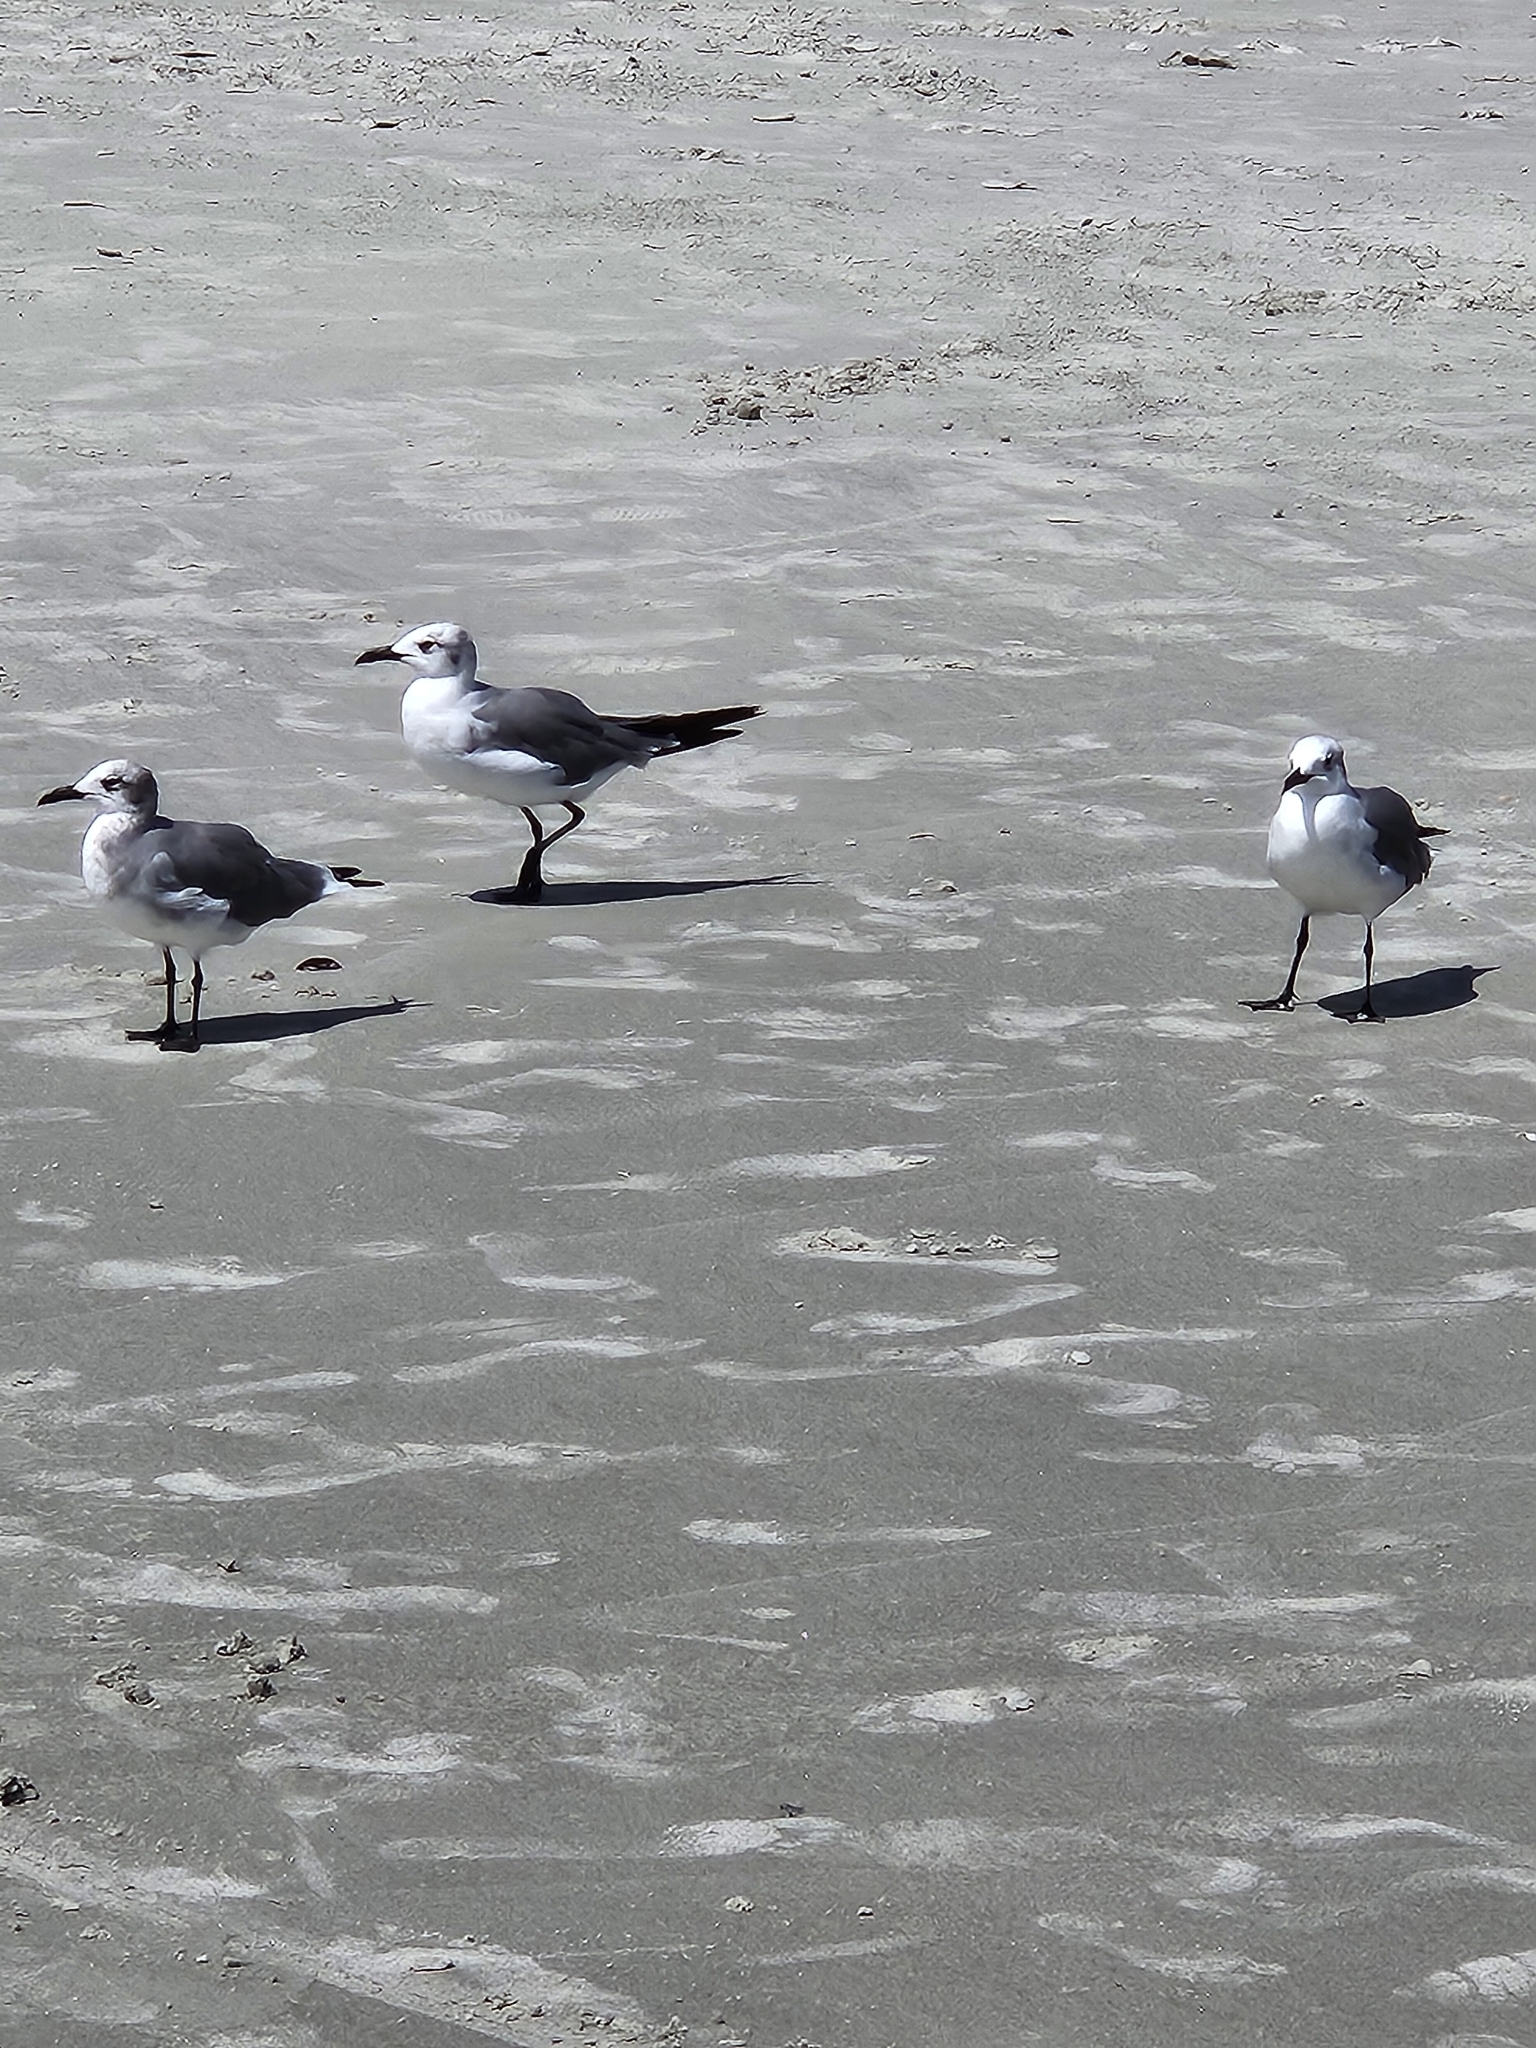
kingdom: Animalia
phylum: Chordata
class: Aves
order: Charadriiformes
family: Laridae
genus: Leucophaeus
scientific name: Leucophaeus atricilla
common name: Laughing gull
